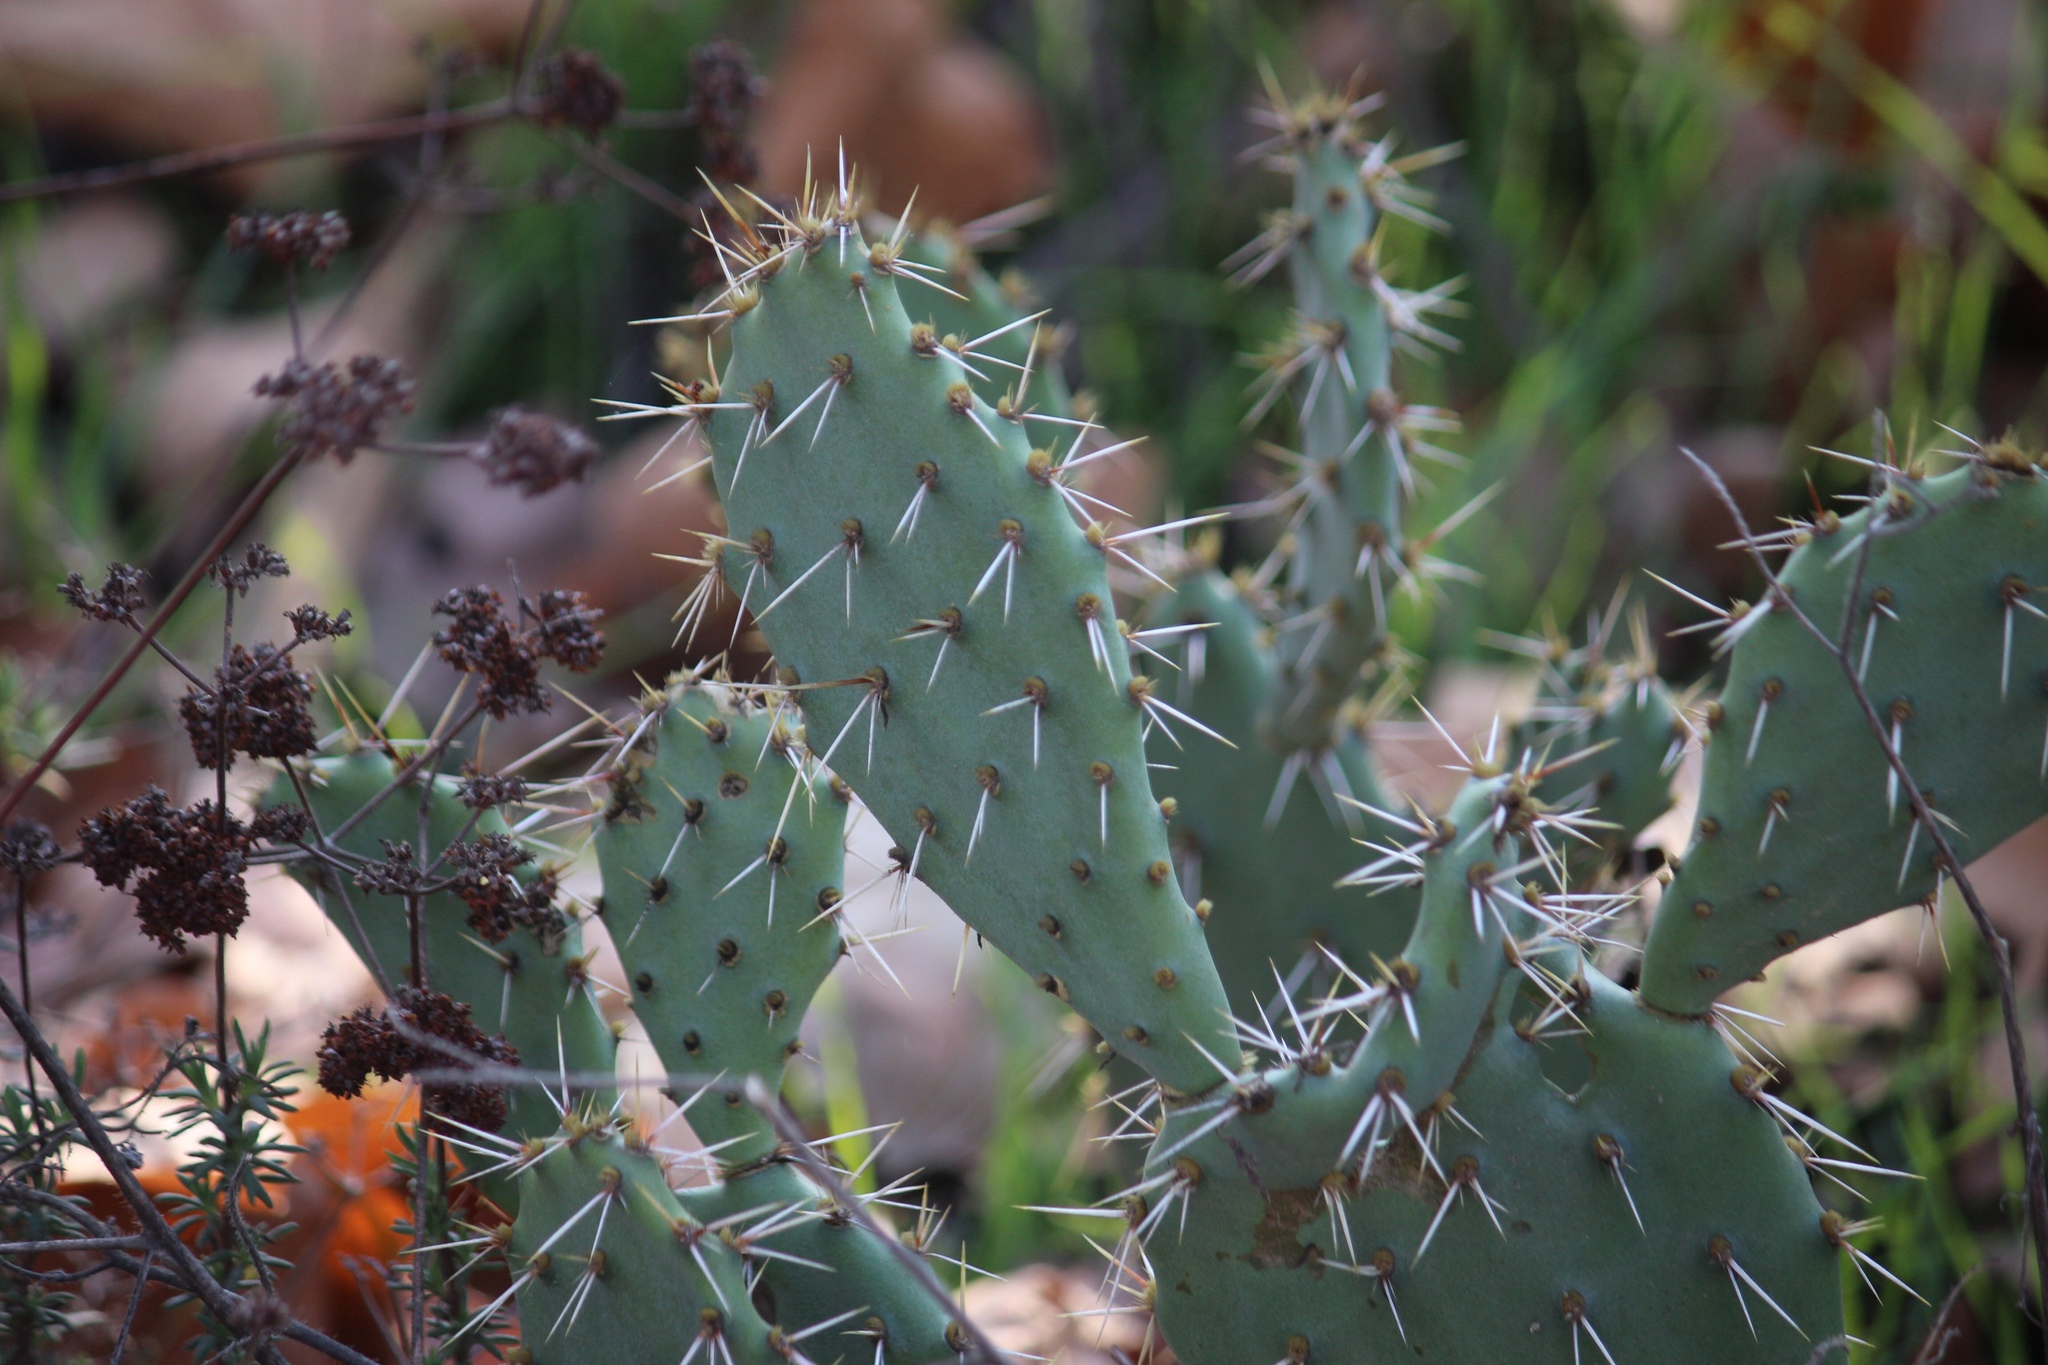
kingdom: Plantae
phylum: Tracheophyta
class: Magnoliopsida
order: Caryophyllales
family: Cactaceae
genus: Opuntia
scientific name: Opuntia littoralis
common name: Coastal prickly-pear
